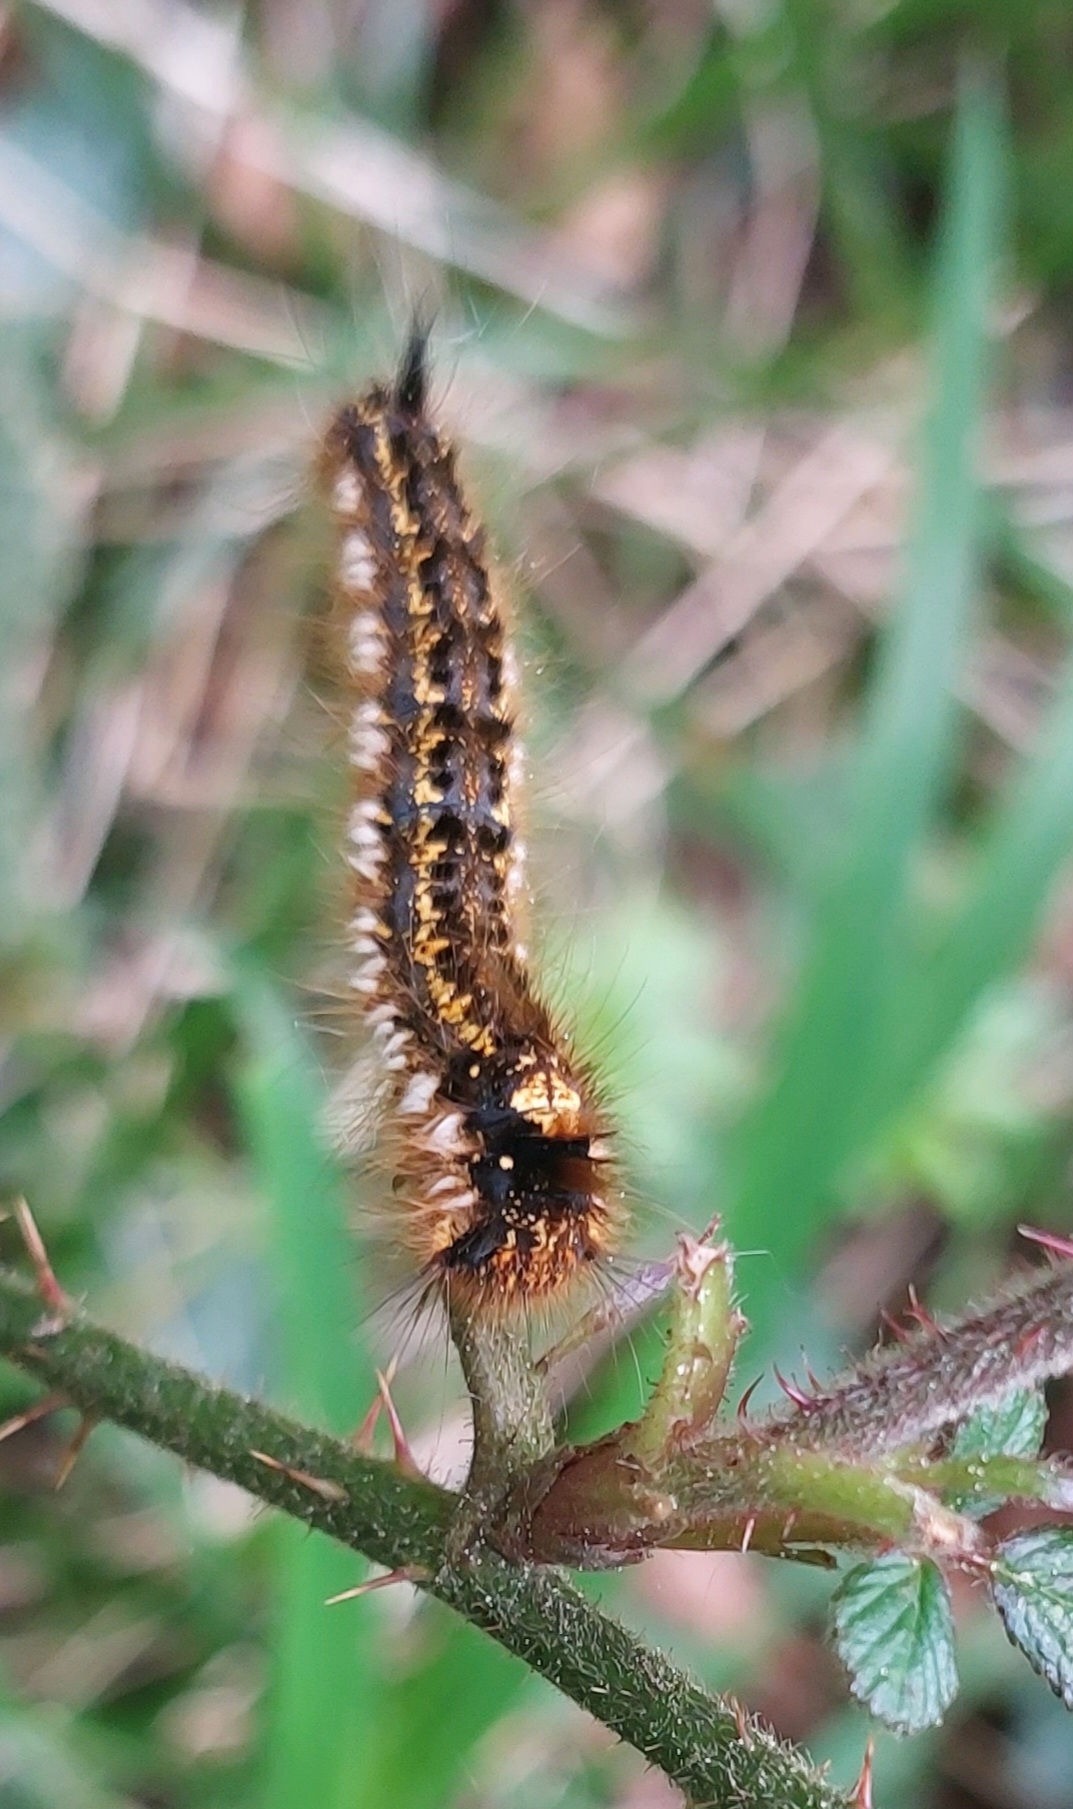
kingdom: Animalia
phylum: Arthropoda
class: Insecta
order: Lepidoptera
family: Lasiocampidae
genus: Euthrix
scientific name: Euthrix potatoria
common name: Drinker
